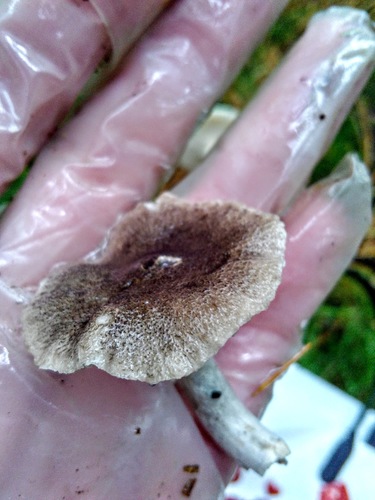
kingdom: Fungi
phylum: Basidiomycota
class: Agaricomycetes
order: Agaricales
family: Tricholomataceae
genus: Tricholoma
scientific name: Tricholoma terreum
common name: Grey knight
